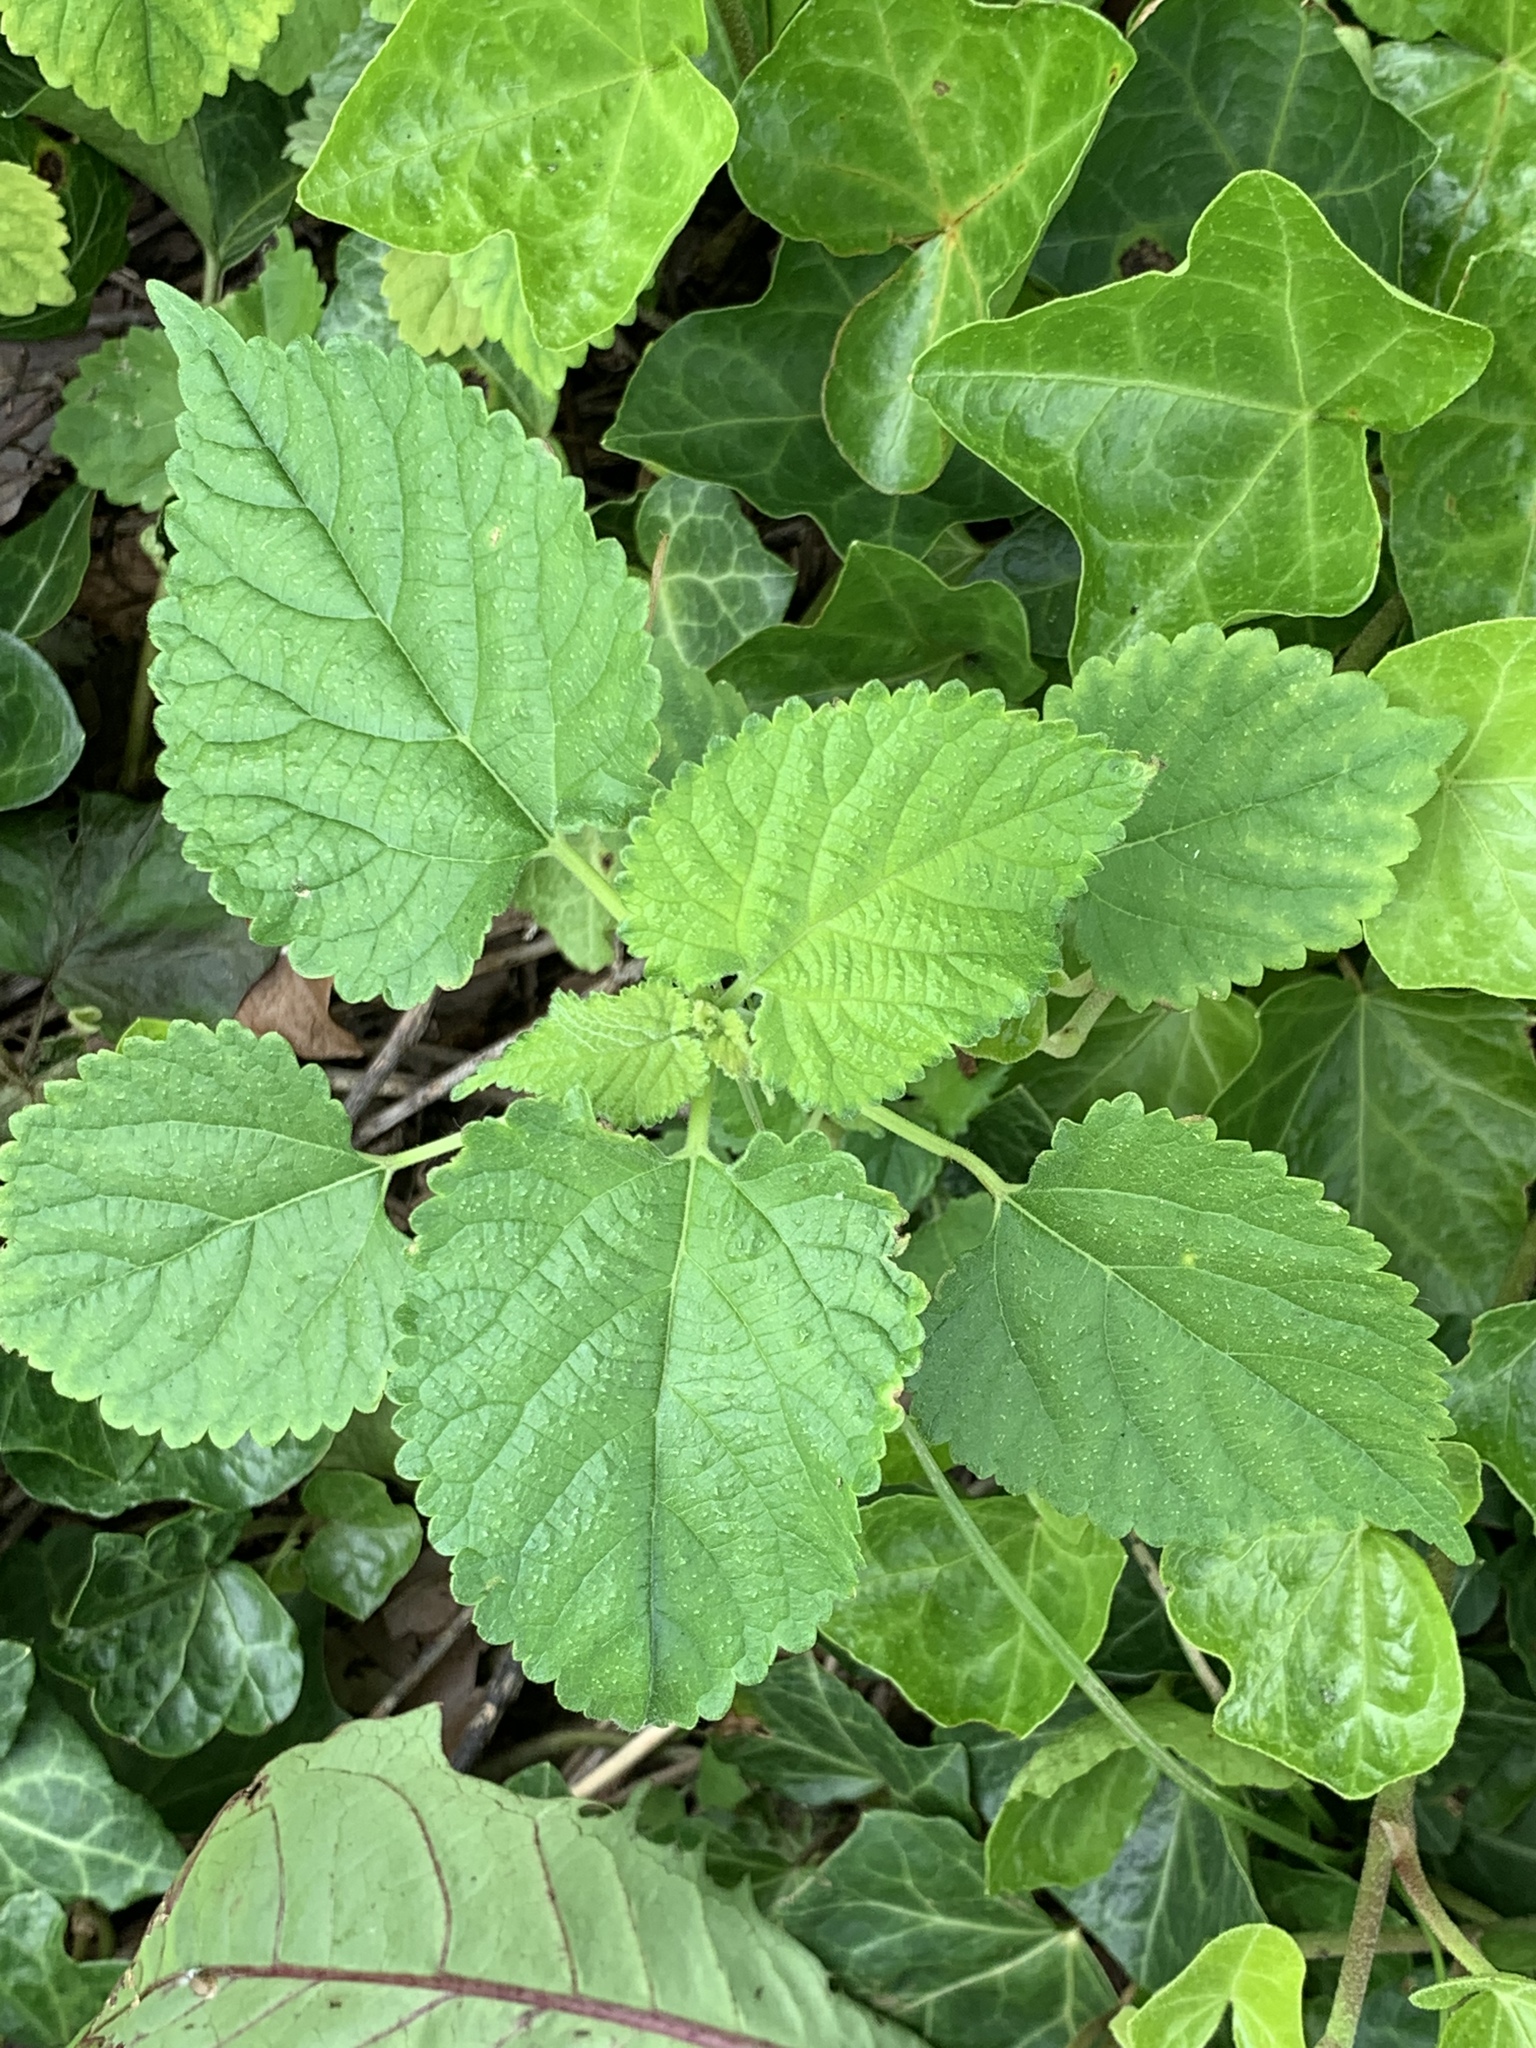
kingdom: Plantae
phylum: Tracheophyta
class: Magnoliopsida
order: Rosales
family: Moraceae
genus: Fatoua
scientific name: Fatoua villosa
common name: Hairy crabweed
